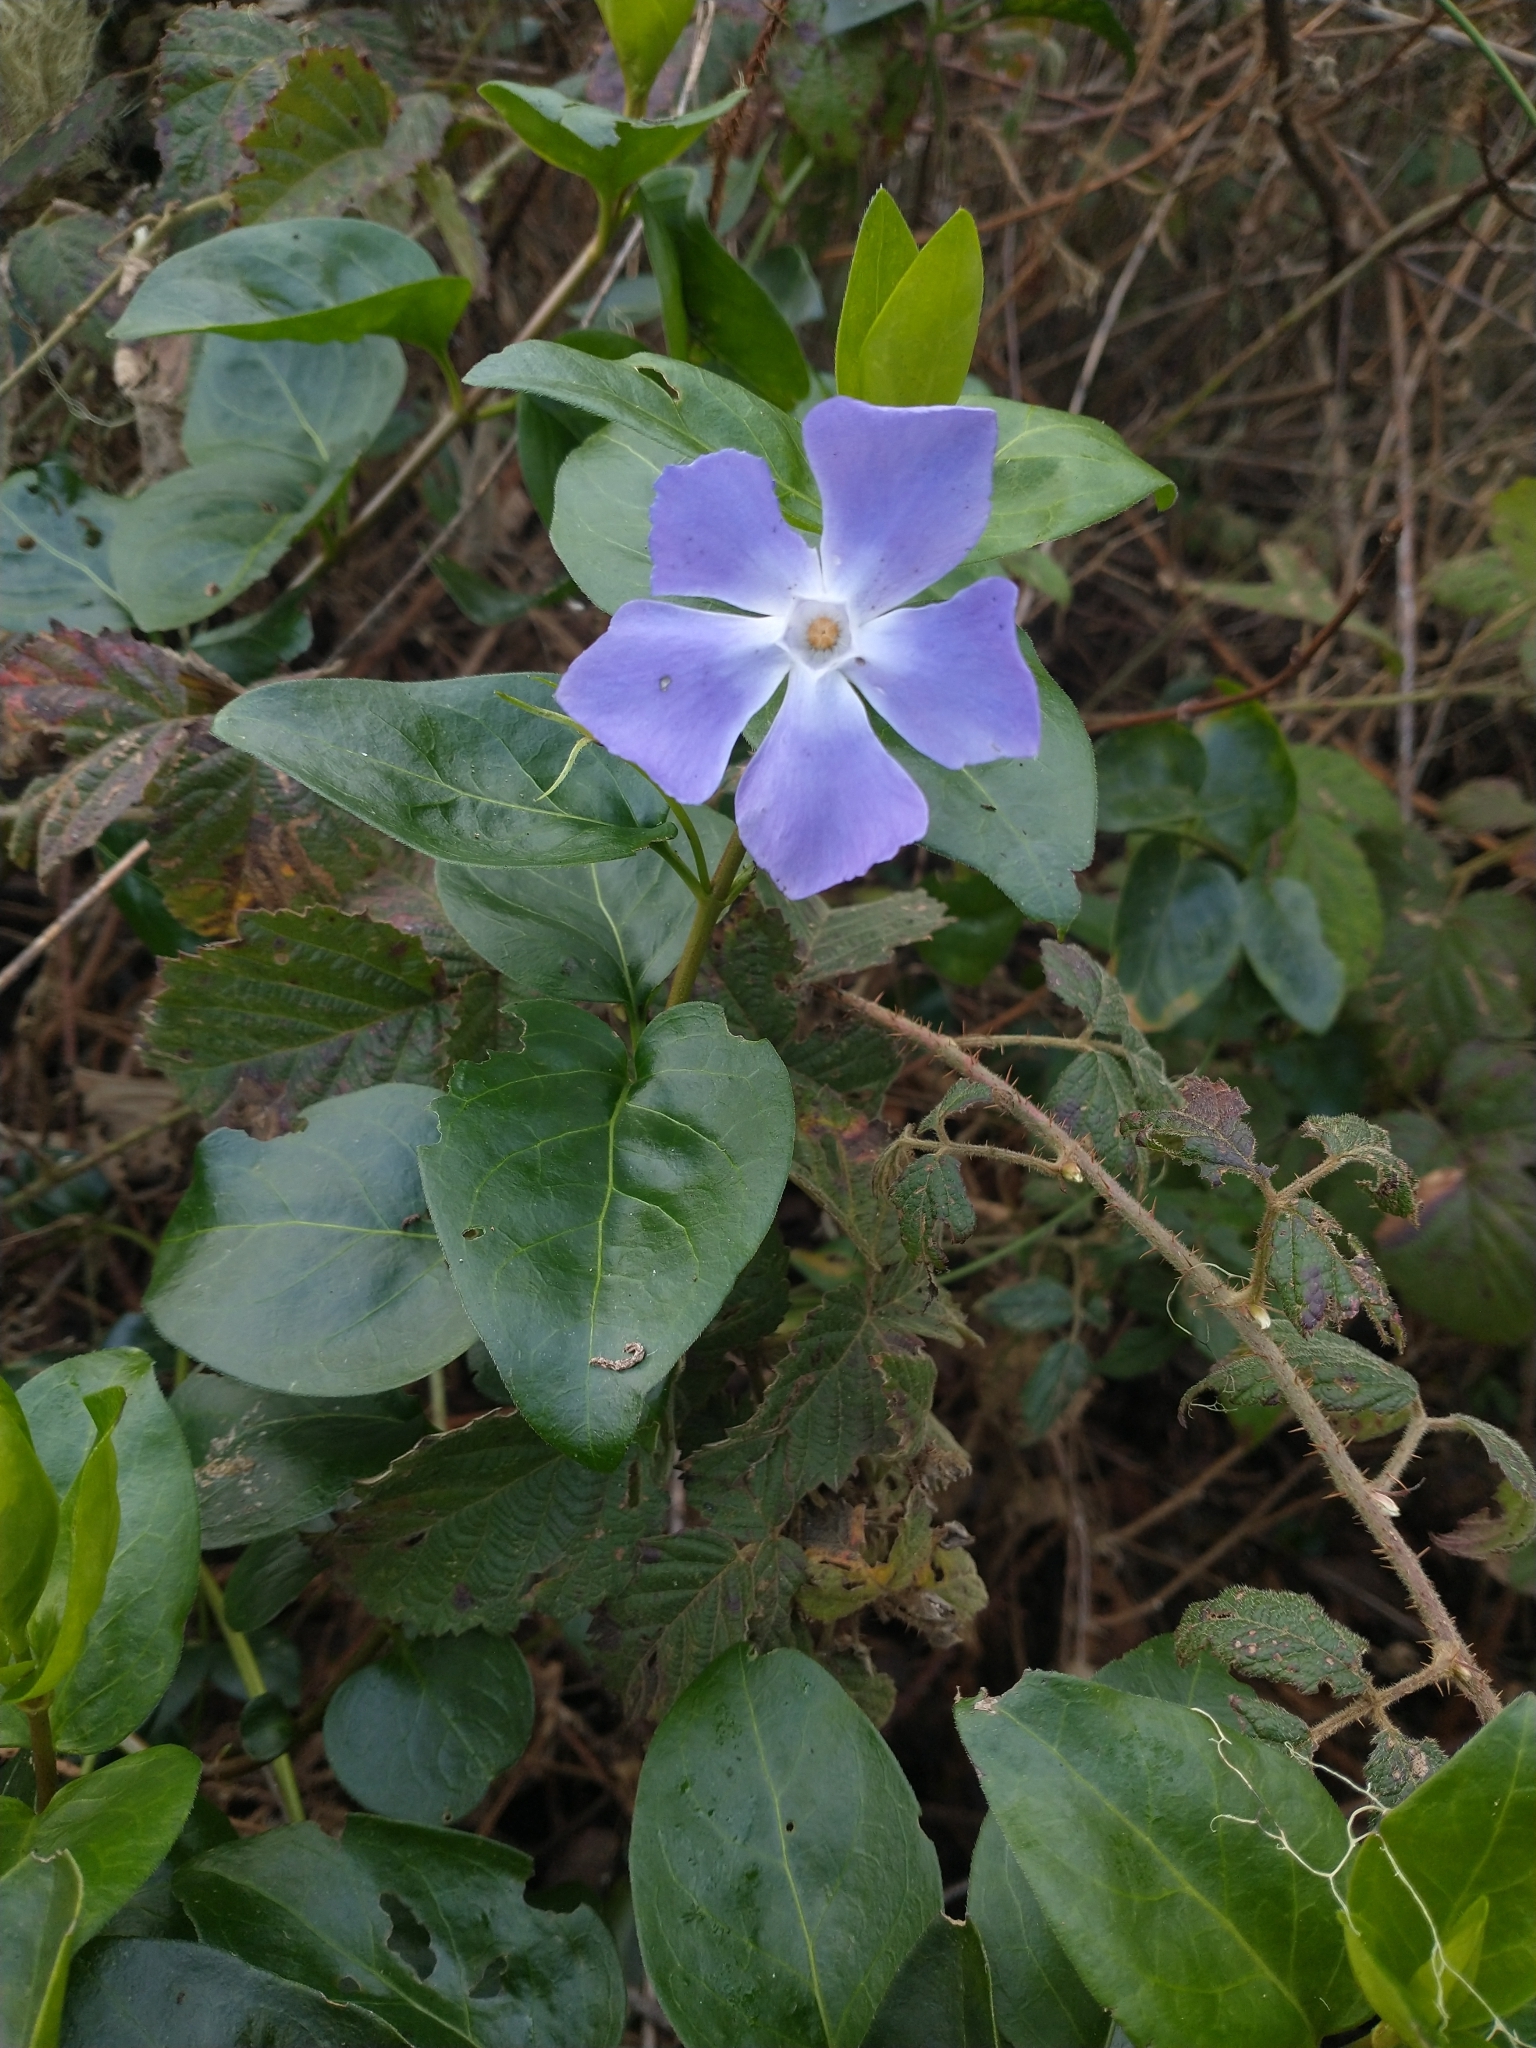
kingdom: Plantae
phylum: Tracheophyta
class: Magnoliopsida
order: Gentianales
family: Apocynaceae
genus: Vinca
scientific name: Vinca major
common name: Greater periwinkle
